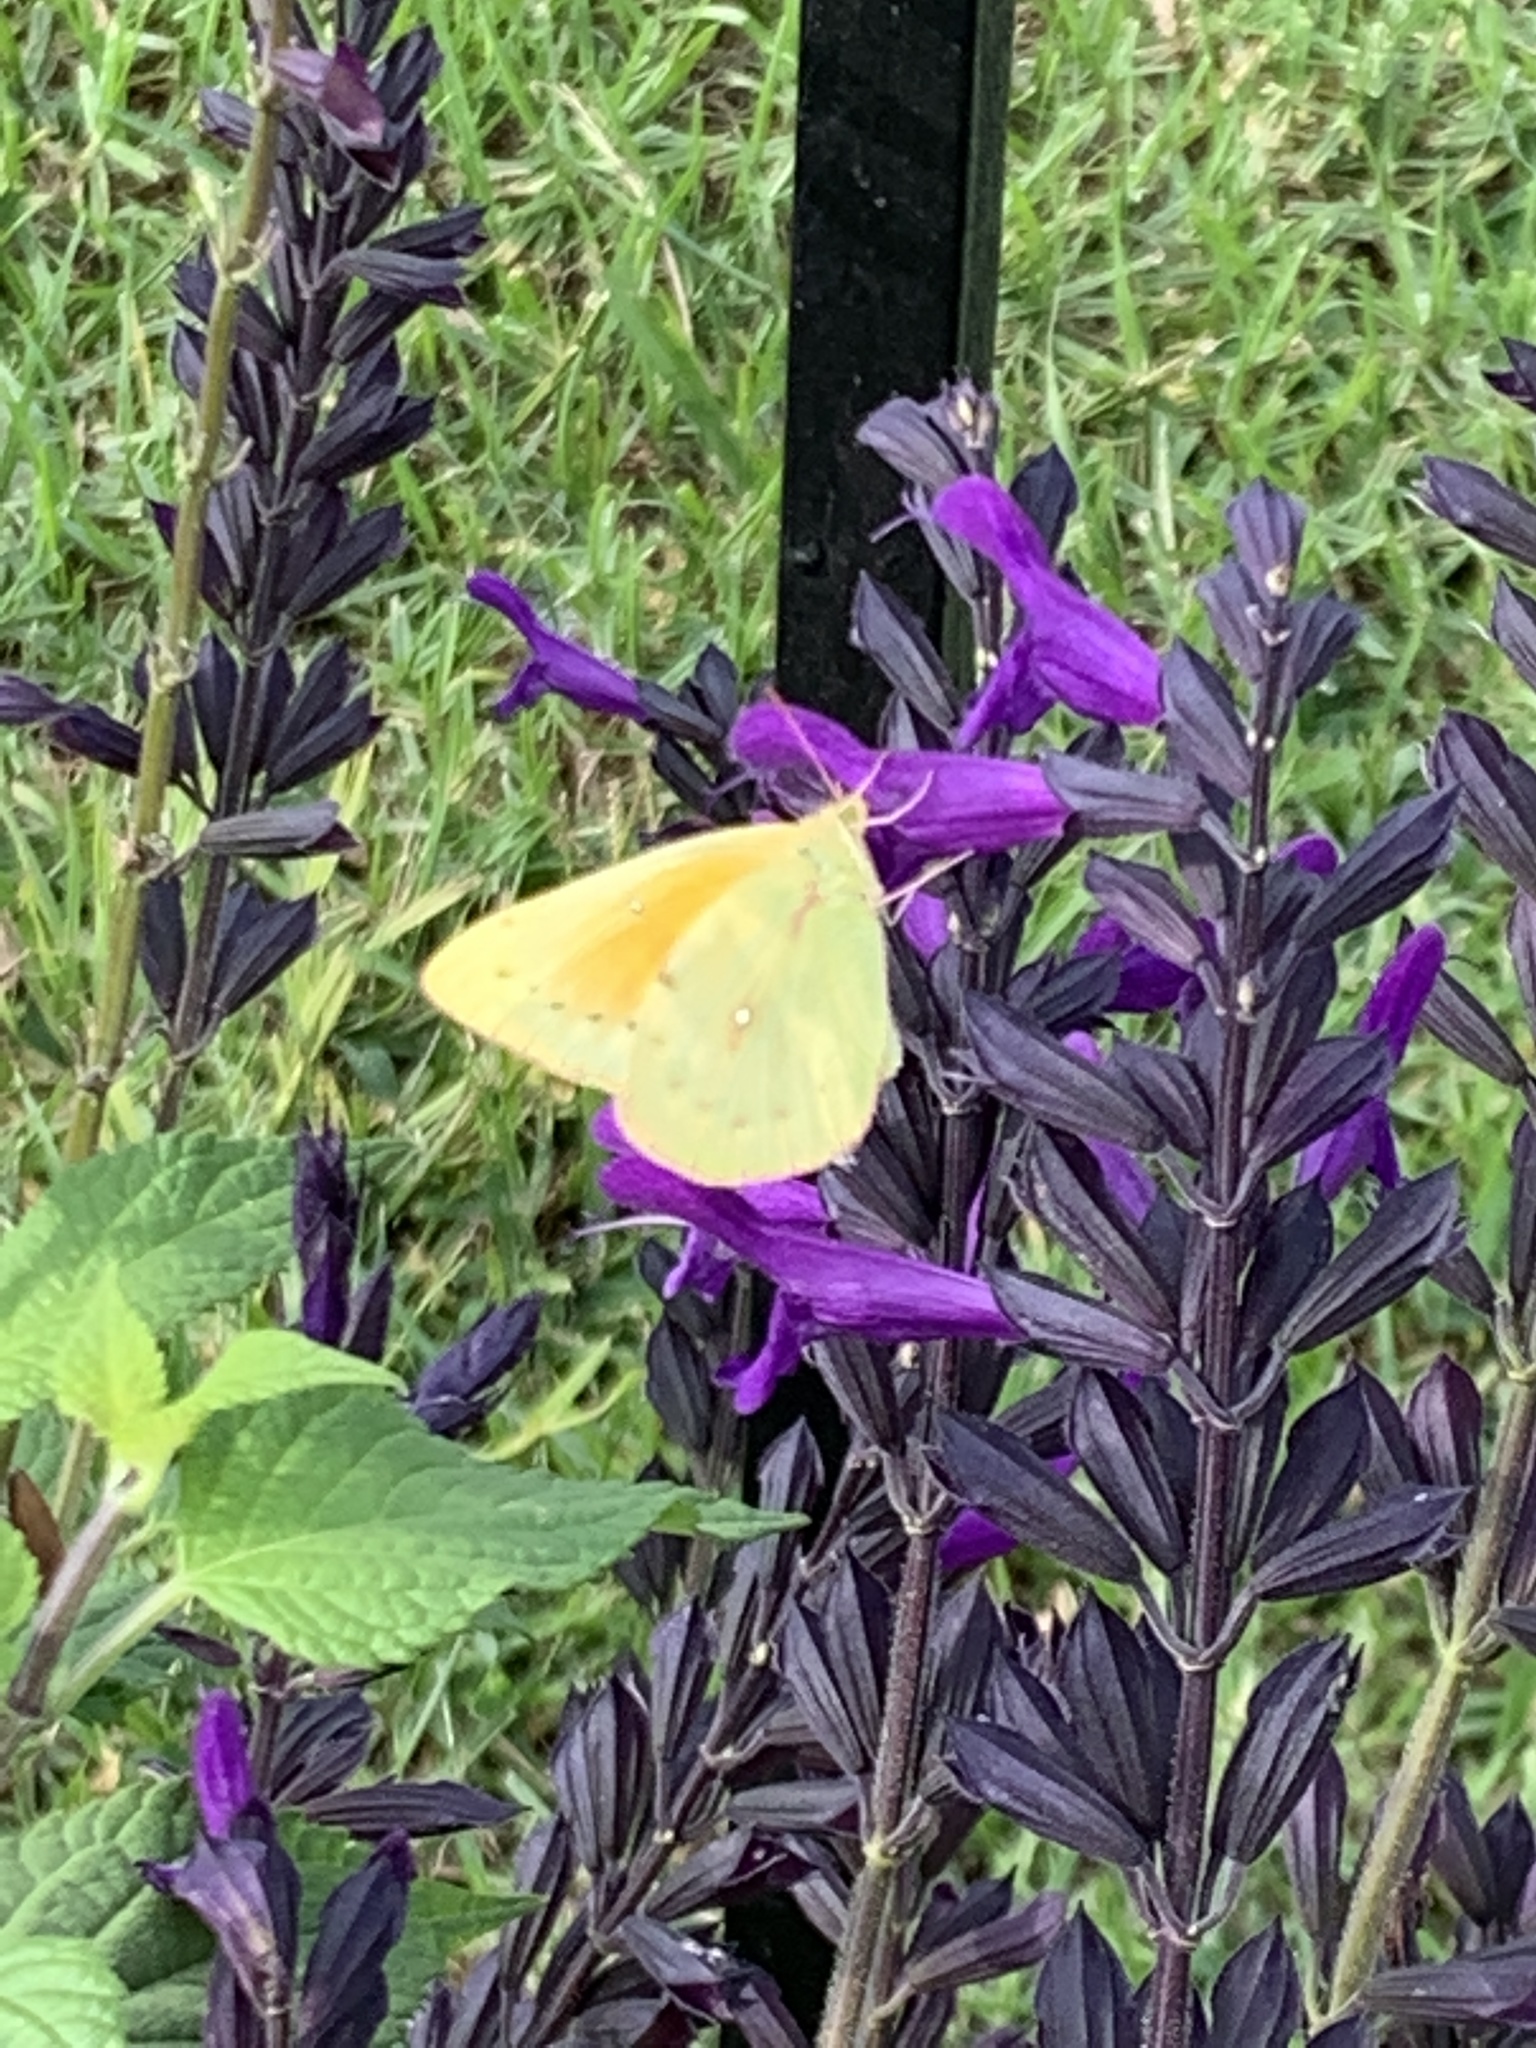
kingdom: Animalia
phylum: Arthropoda
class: Insecta
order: Lepidoptera
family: Pieridae
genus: Colias
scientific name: Colias lesbia
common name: Lesbia clouded yellow
